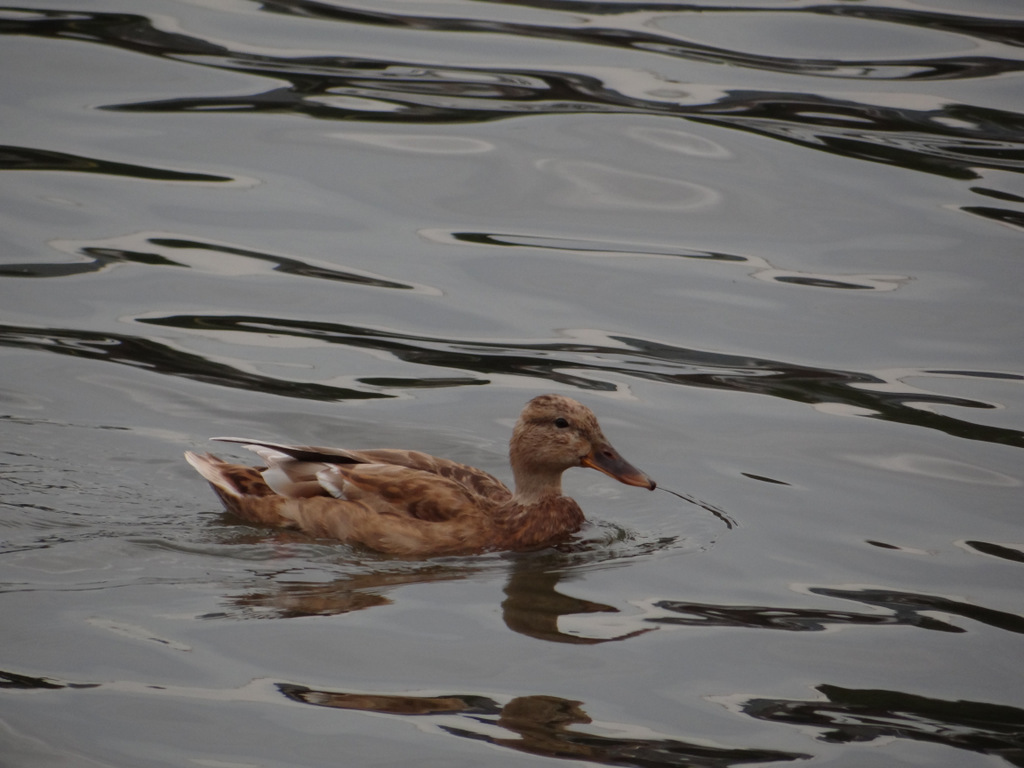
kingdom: Animalia
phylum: Chordata
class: Aves
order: Anseriformes
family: Anatidae
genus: Anas
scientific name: Anas platyrhynchos
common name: Mallard
